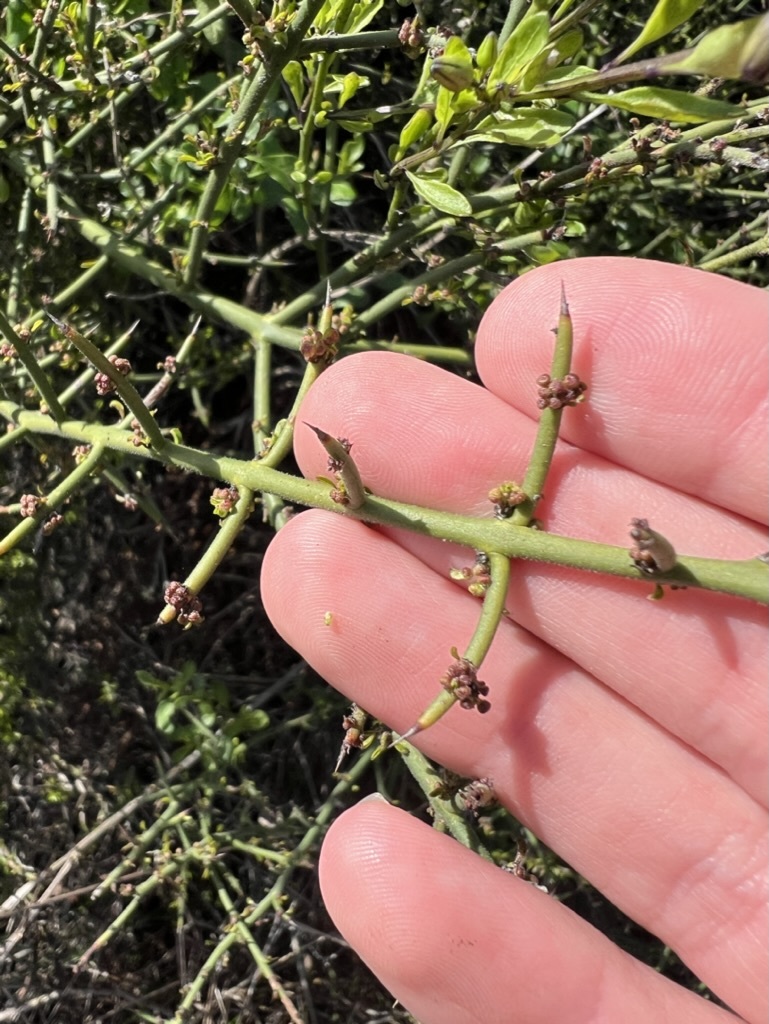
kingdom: Plantae
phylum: Tracheophyta
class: Magnoliopsida
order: Rosales
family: Rhamnaceae
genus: Adolphia
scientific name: Adolphia californica
